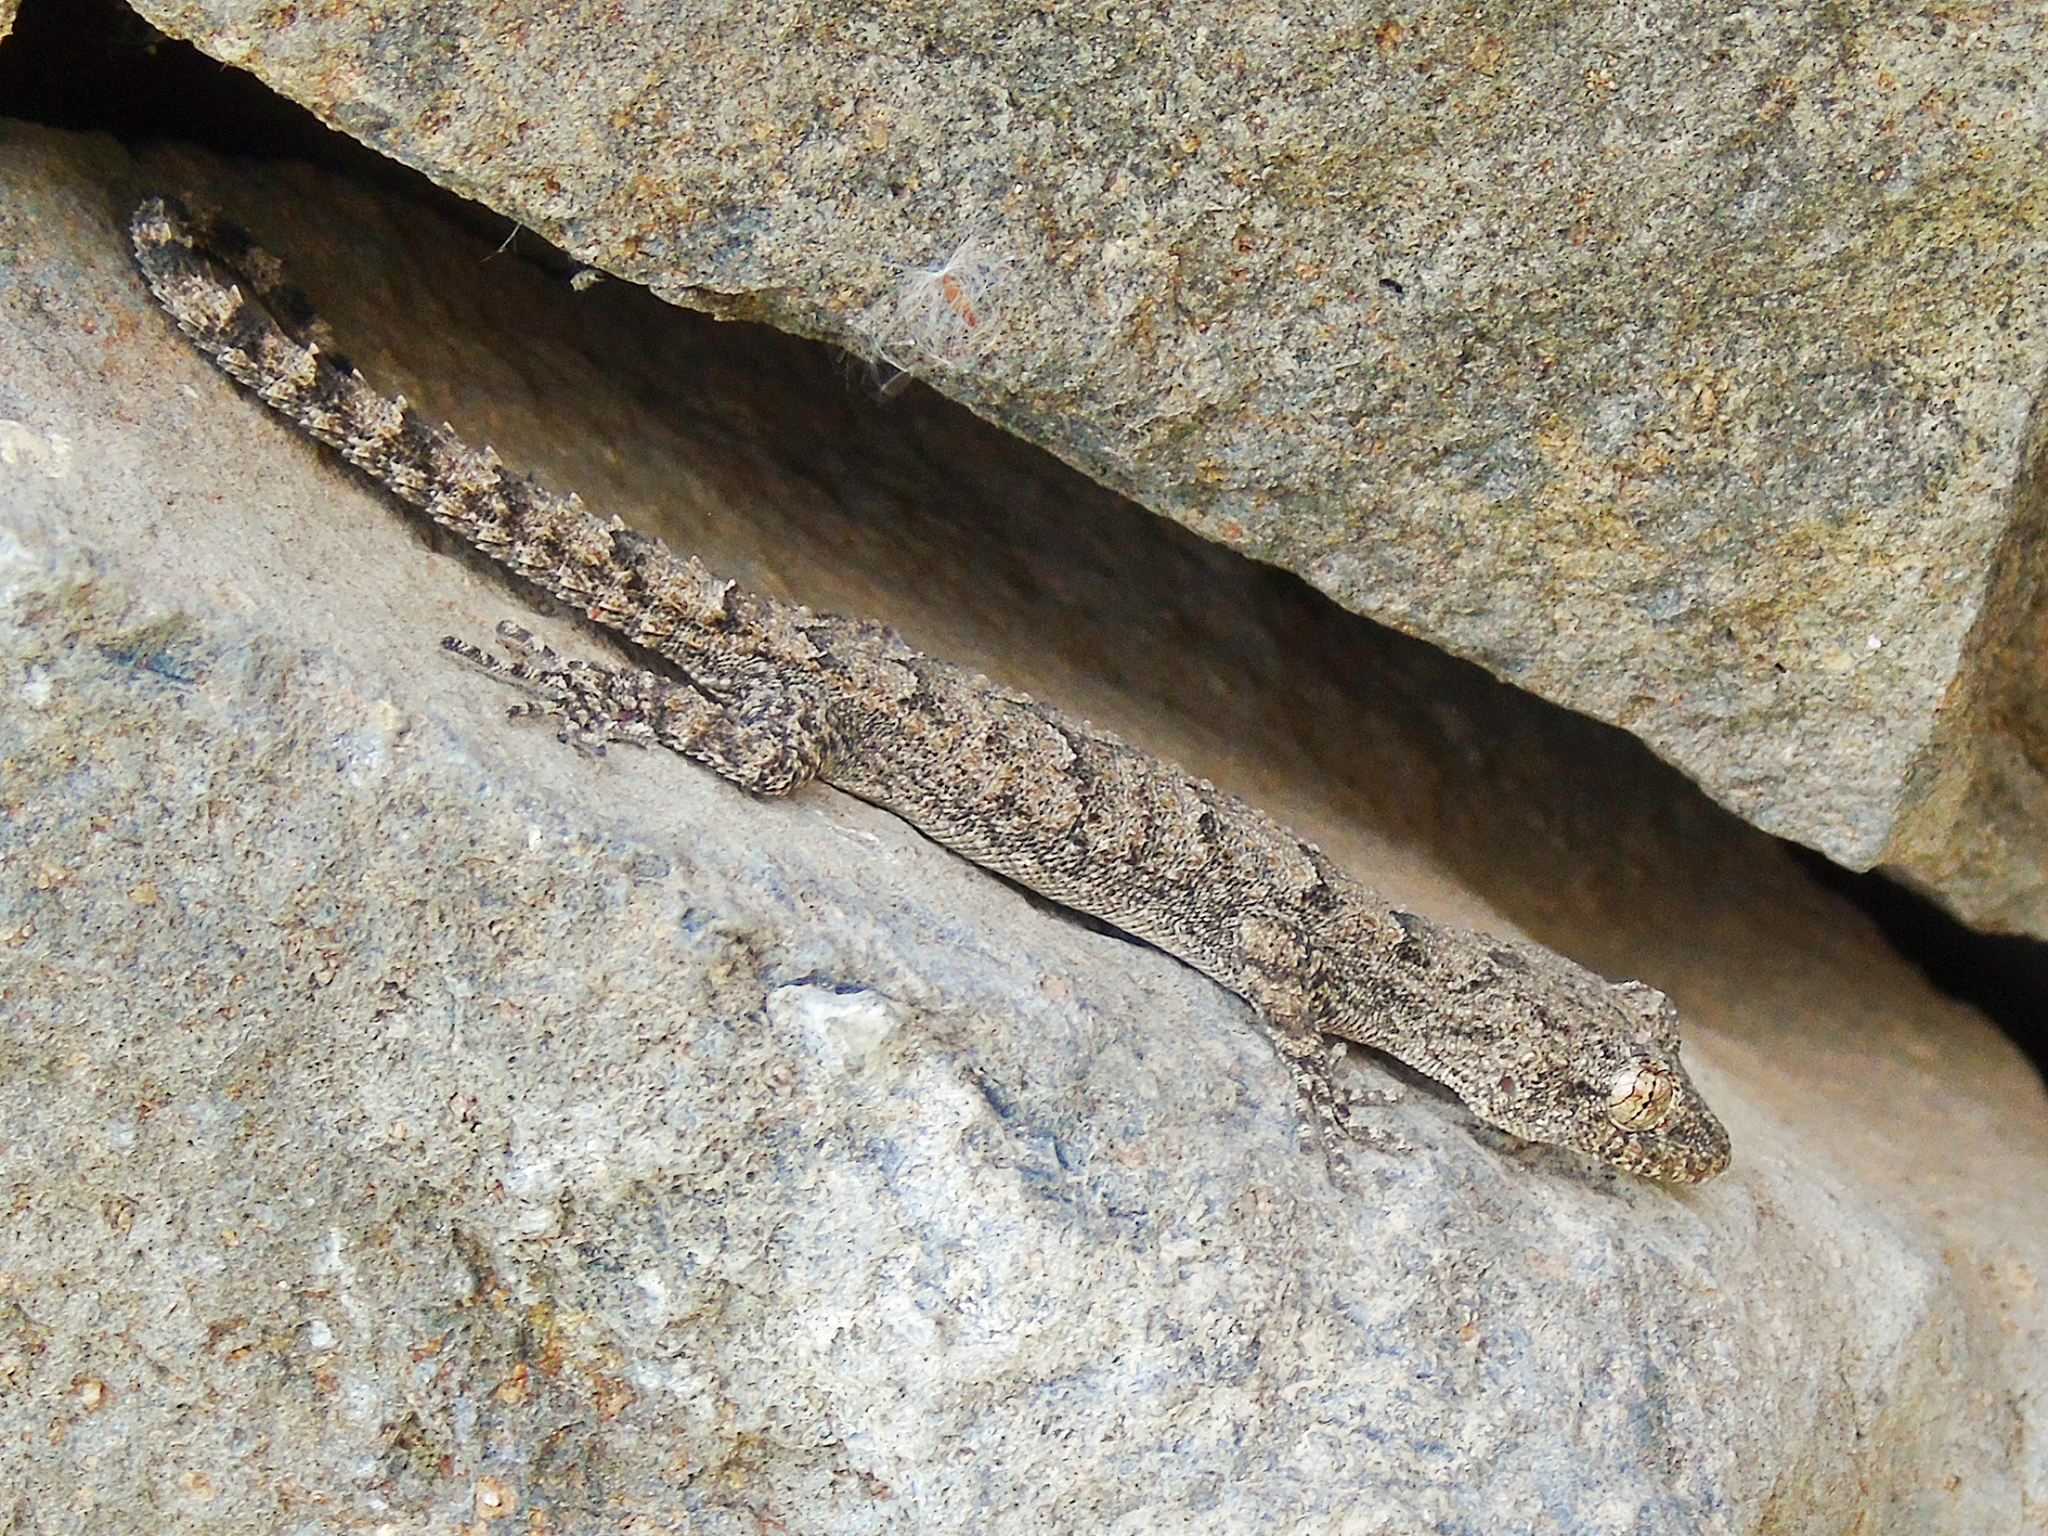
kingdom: Animalia
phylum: Chordata
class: Squamata
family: Gekkonidae
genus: Mediodactylus
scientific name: Mediodactylus heterocercus
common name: Asia minor thin-toed gecko
